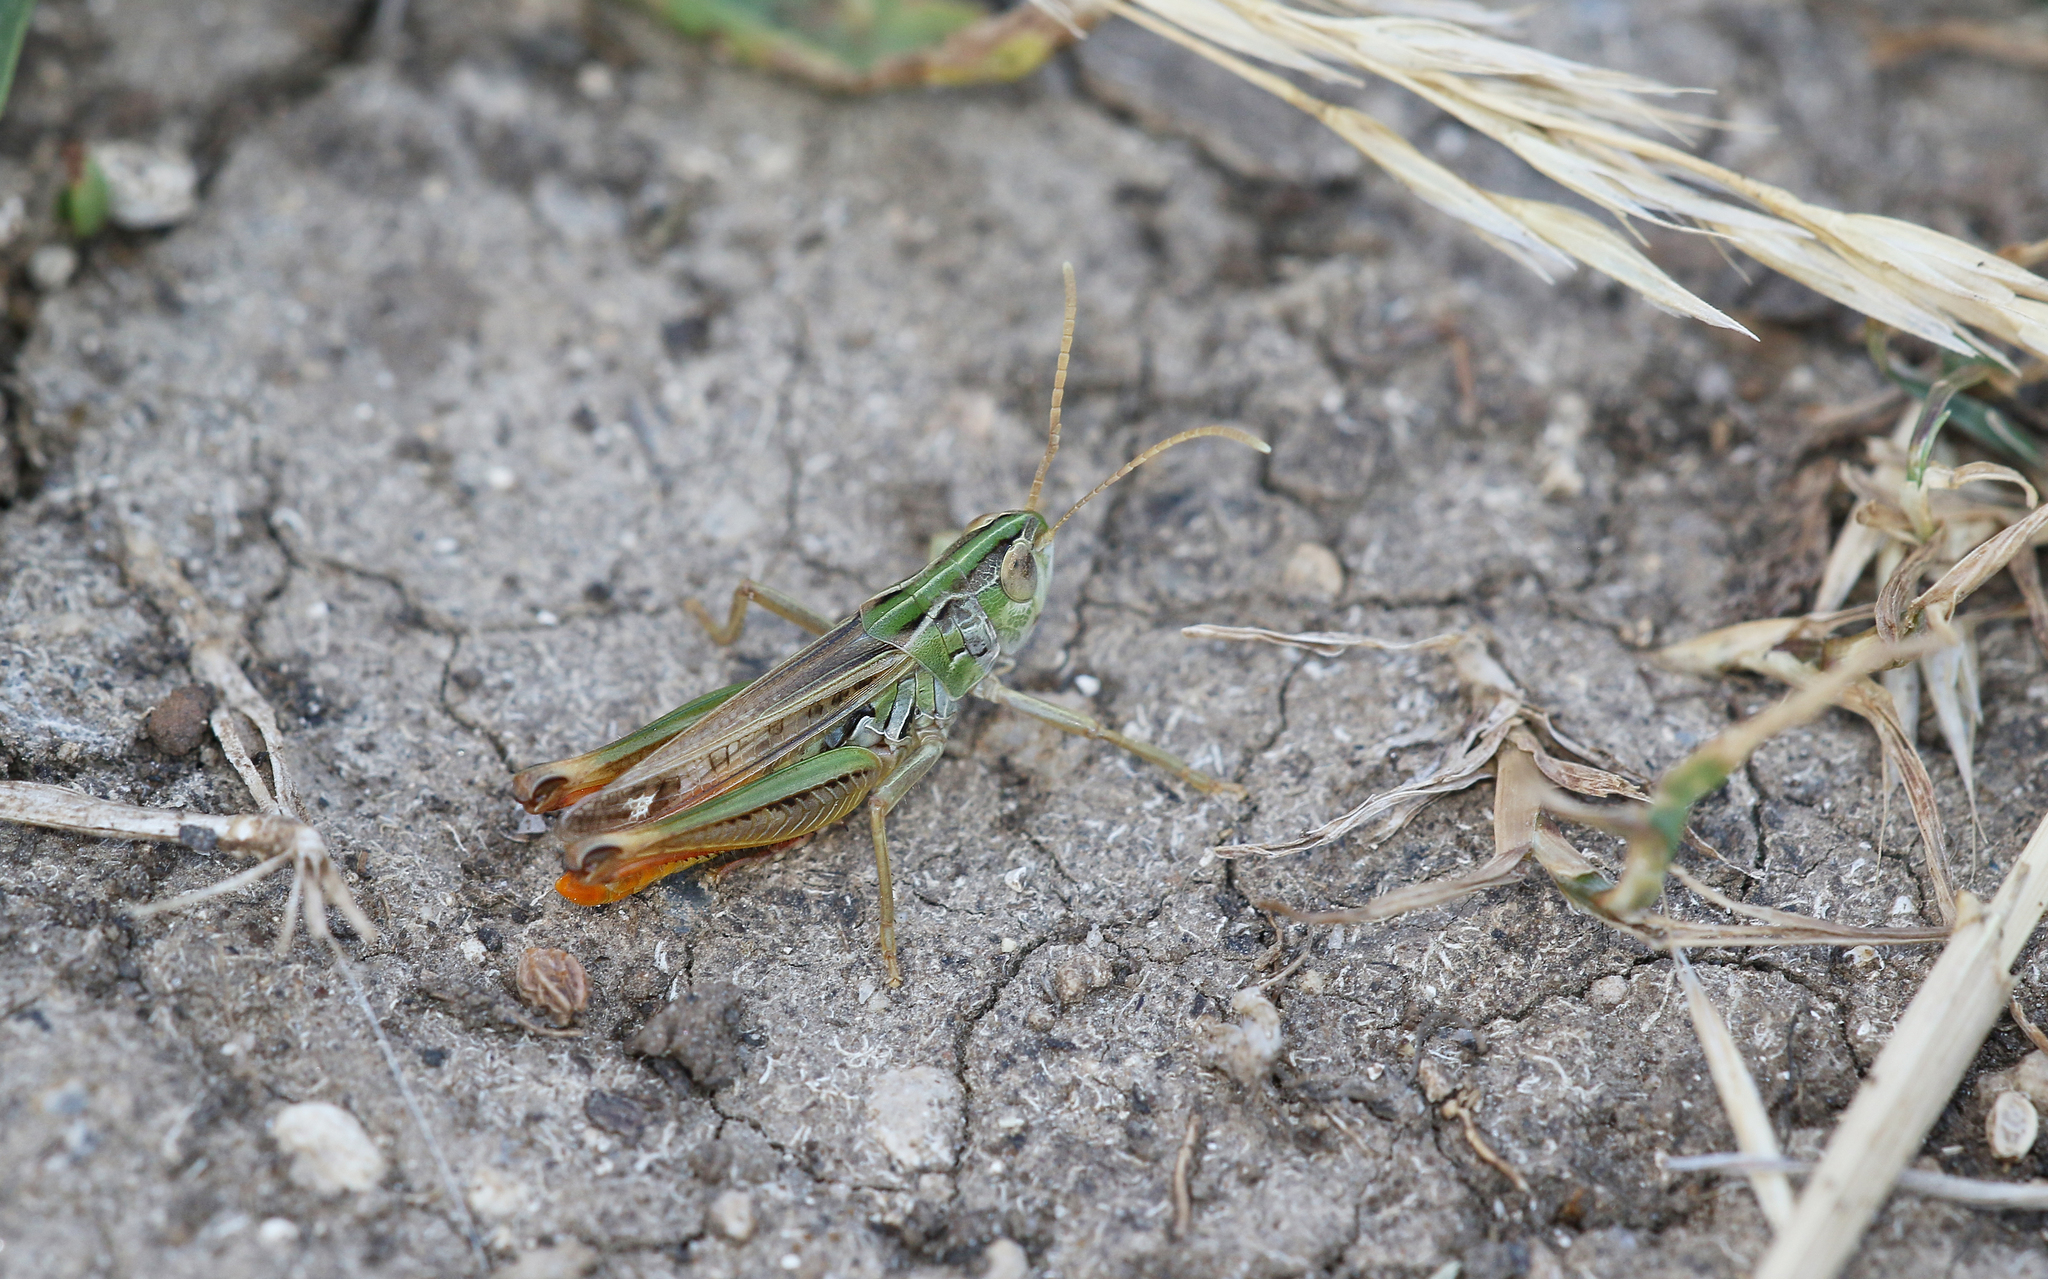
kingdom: Animalia
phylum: Arthropoda
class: Insecta
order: Orthoptera
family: Acrididae
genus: Stenobothrus
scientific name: Stenobothrus nigromaculatus
